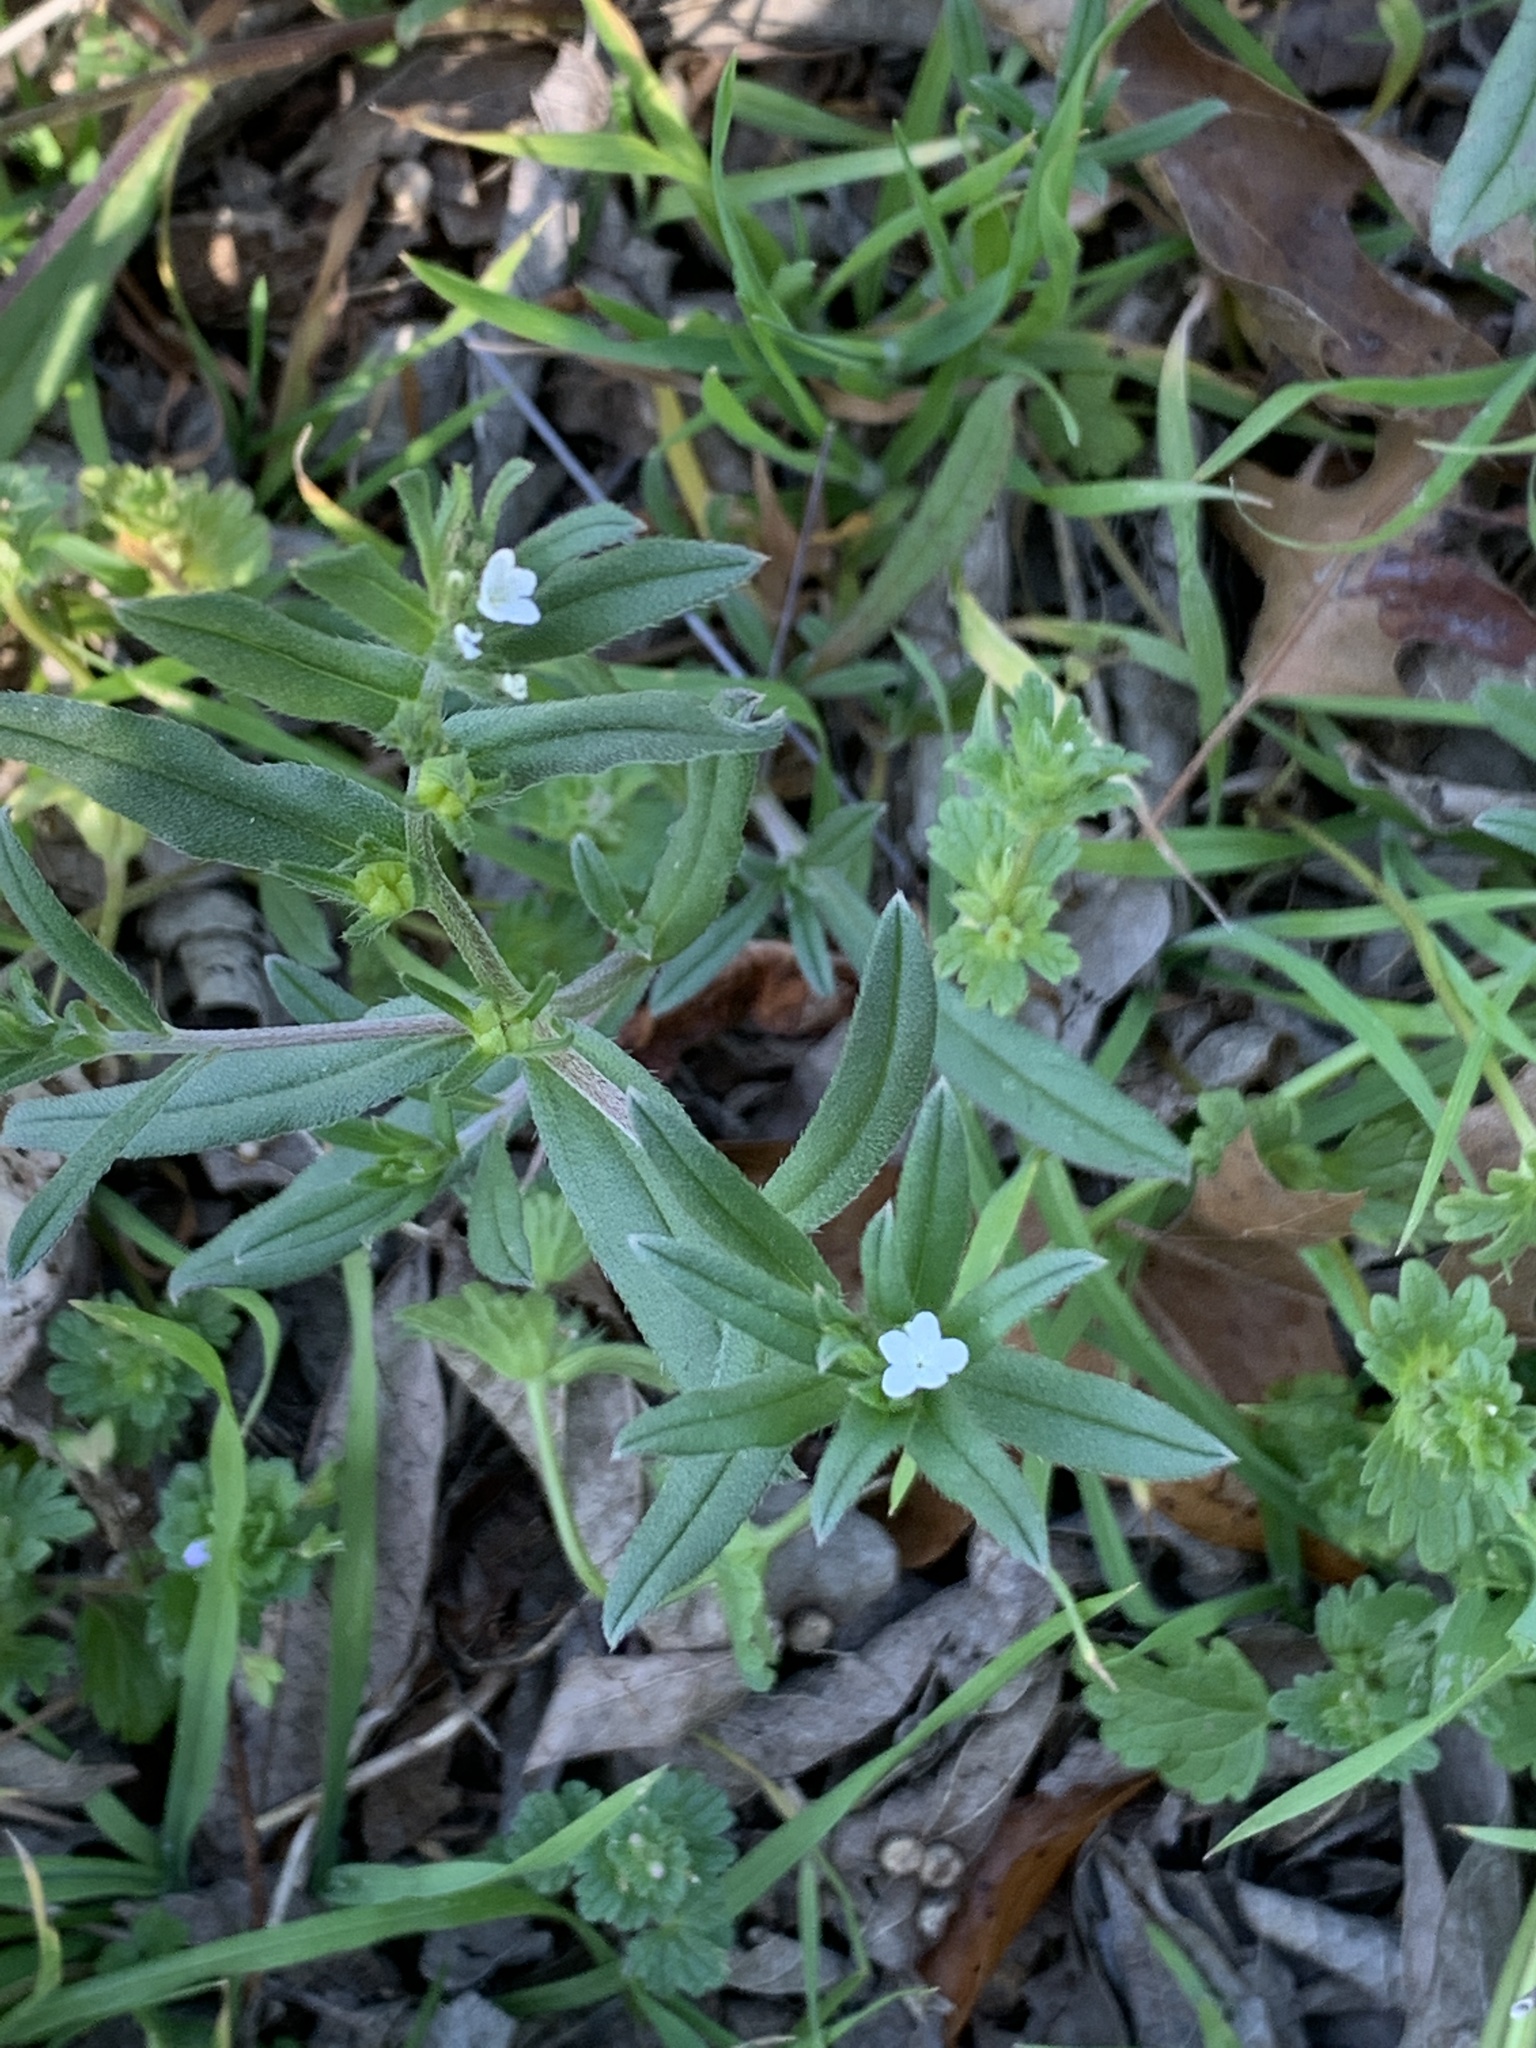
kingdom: Plantae
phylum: Tracheophyta
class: Magnoliopsida
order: Boraginales
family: Boraginaceae
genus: Buglossoides
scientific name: Buglossoides arvensis
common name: Corn gromwell
